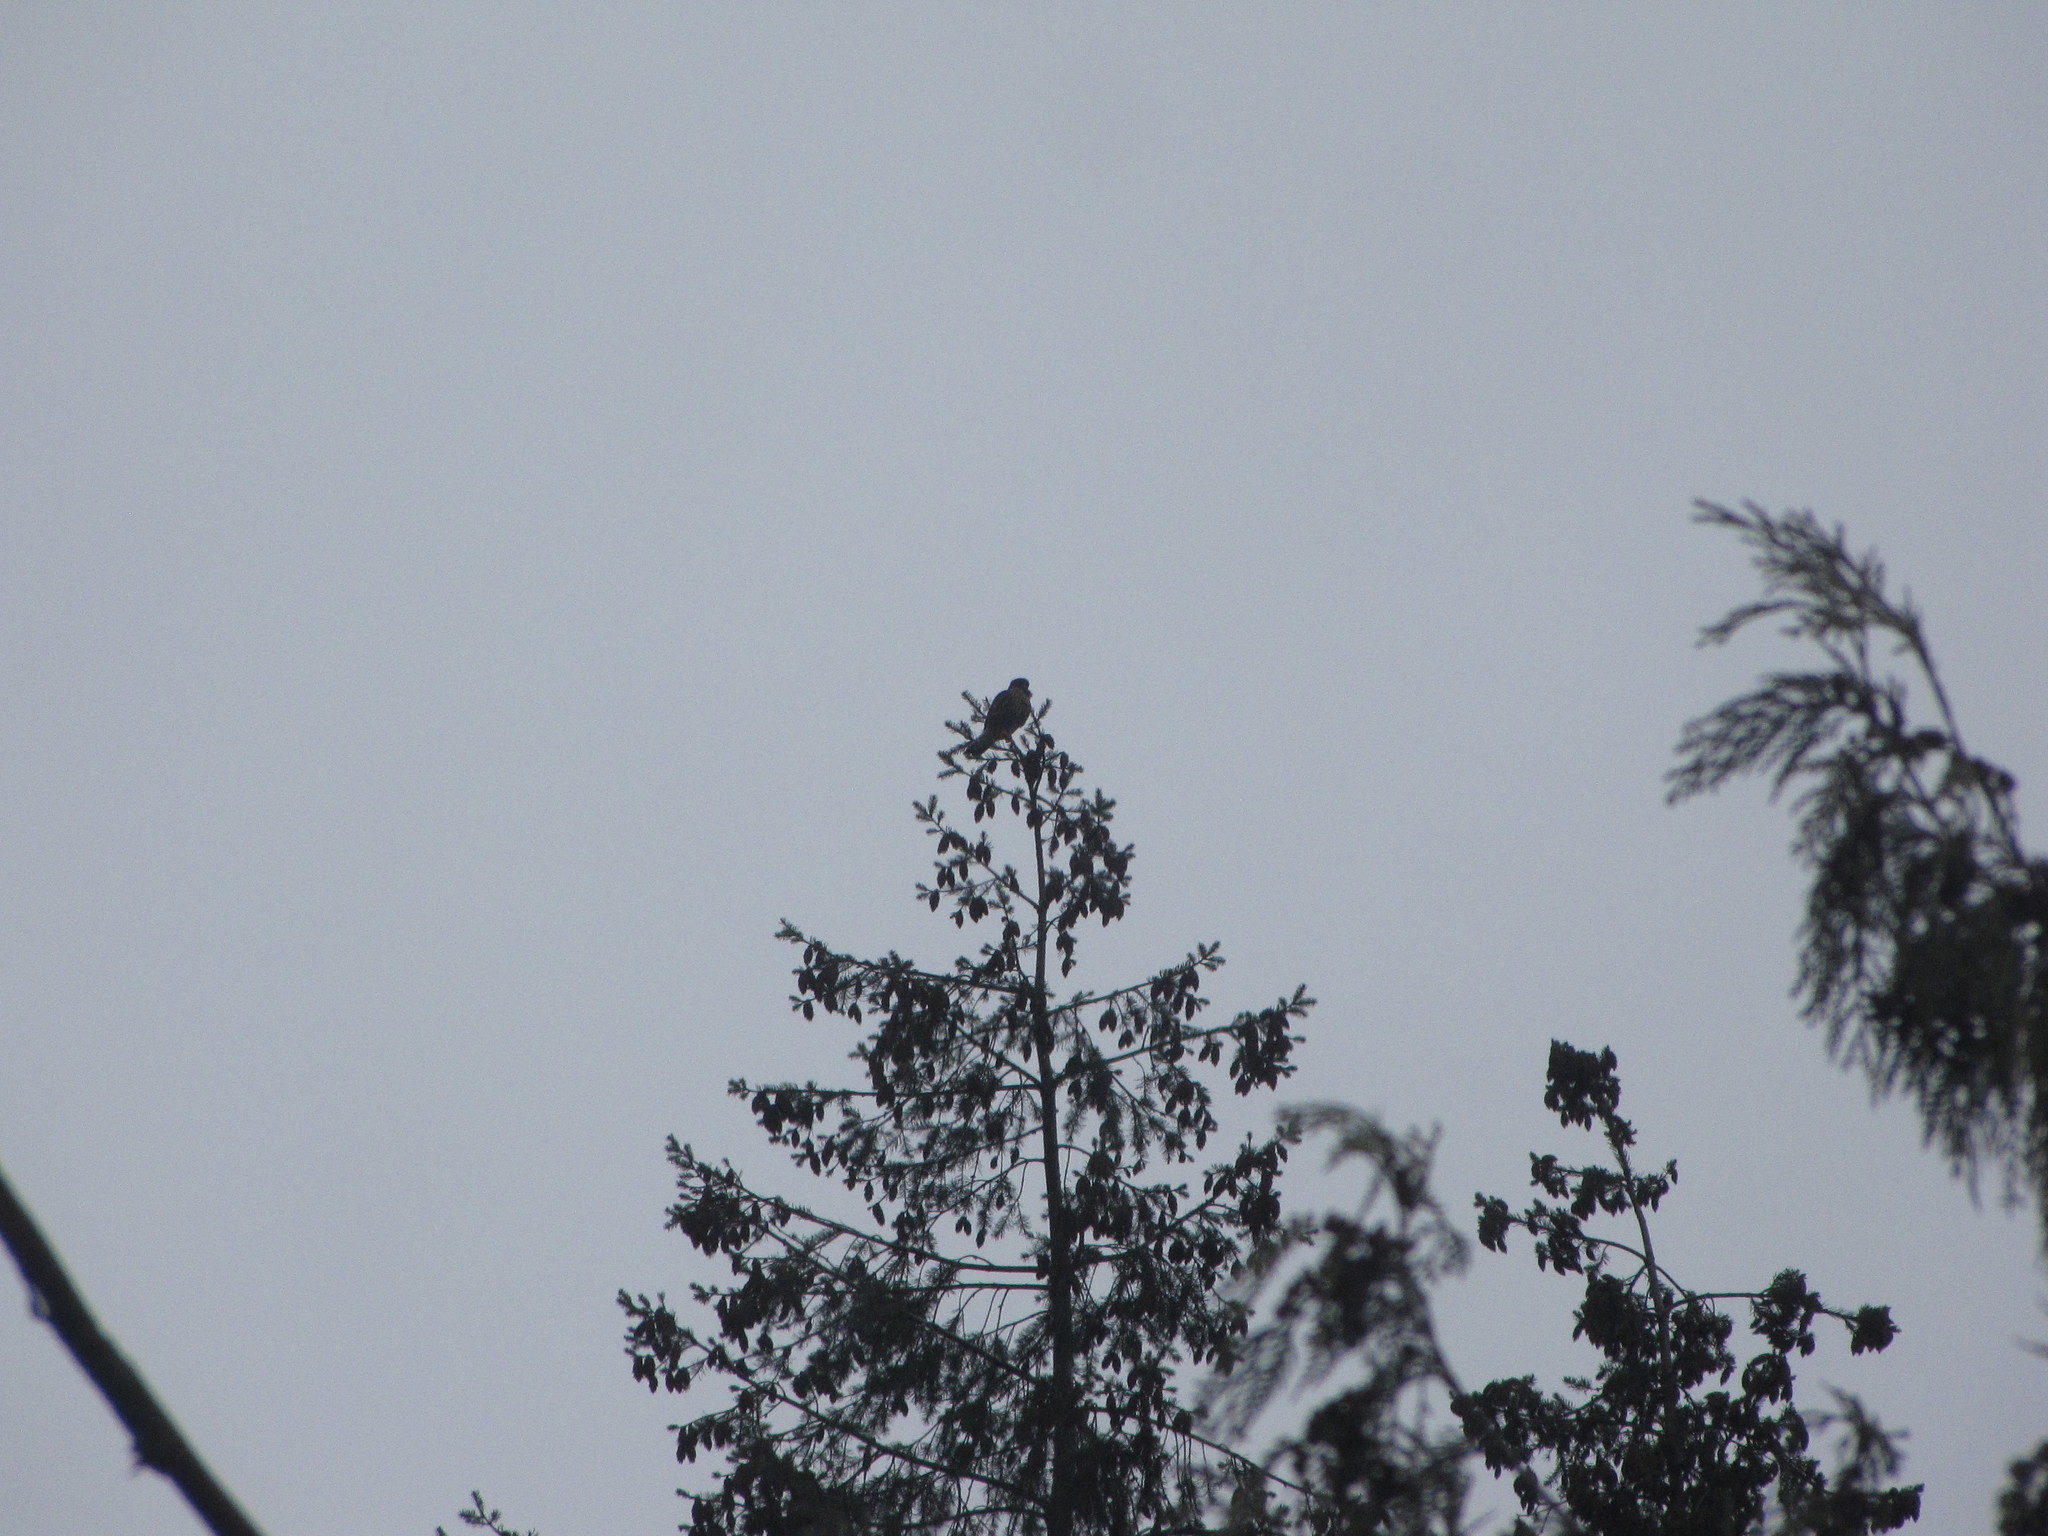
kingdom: Animalia
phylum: Chordata
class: Aves
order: Falconiformes
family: Falconidae
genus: Falco
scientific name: Falco columbarius
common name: Merlin
